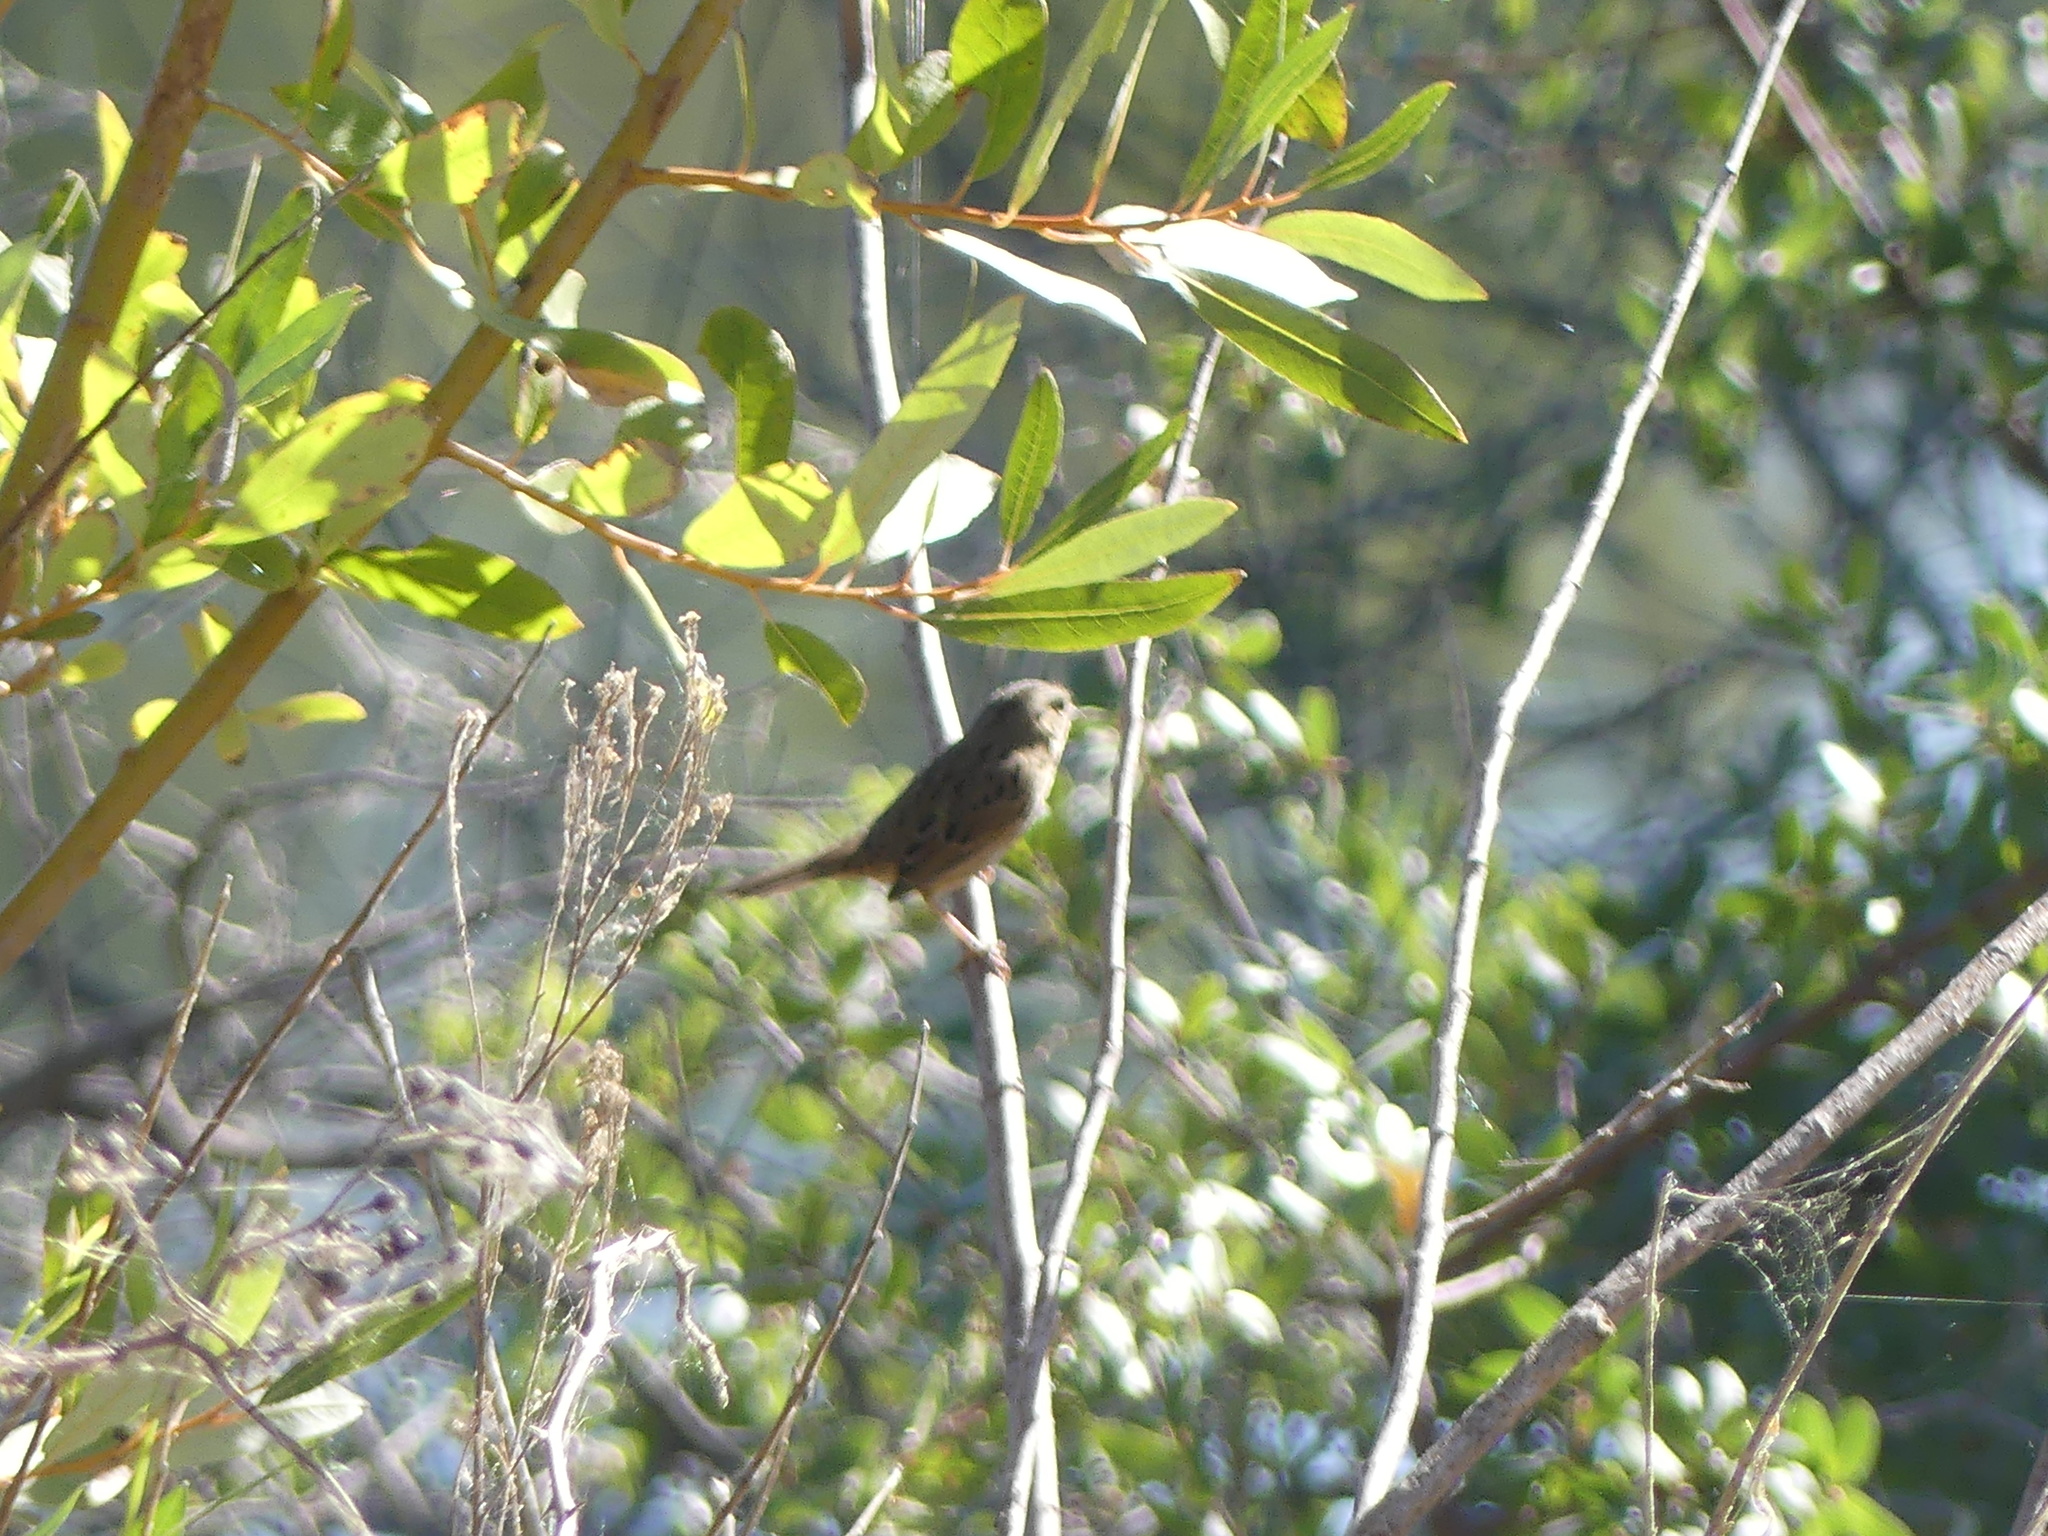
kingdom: Animalia
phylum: Chordata
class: Aves
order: Passeriformes
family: Passerellidae
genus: Melospiza
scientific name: Melospiza lincolnii
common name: Lincoln's sparrow
